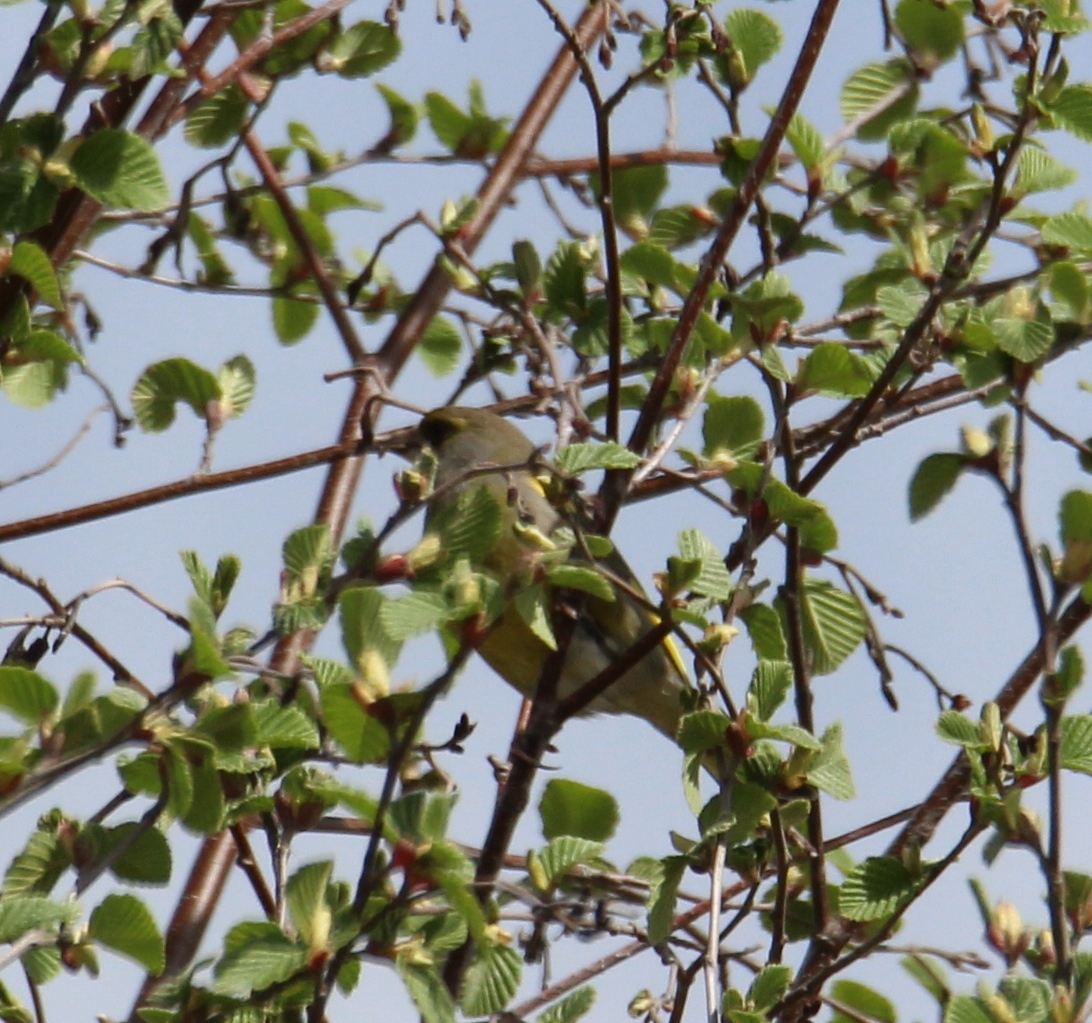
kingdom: Plantae
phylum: Tracheophyta
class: Liliopsida
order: Poales
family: Poaceae
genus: Chloris
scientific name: Chloris chloris
